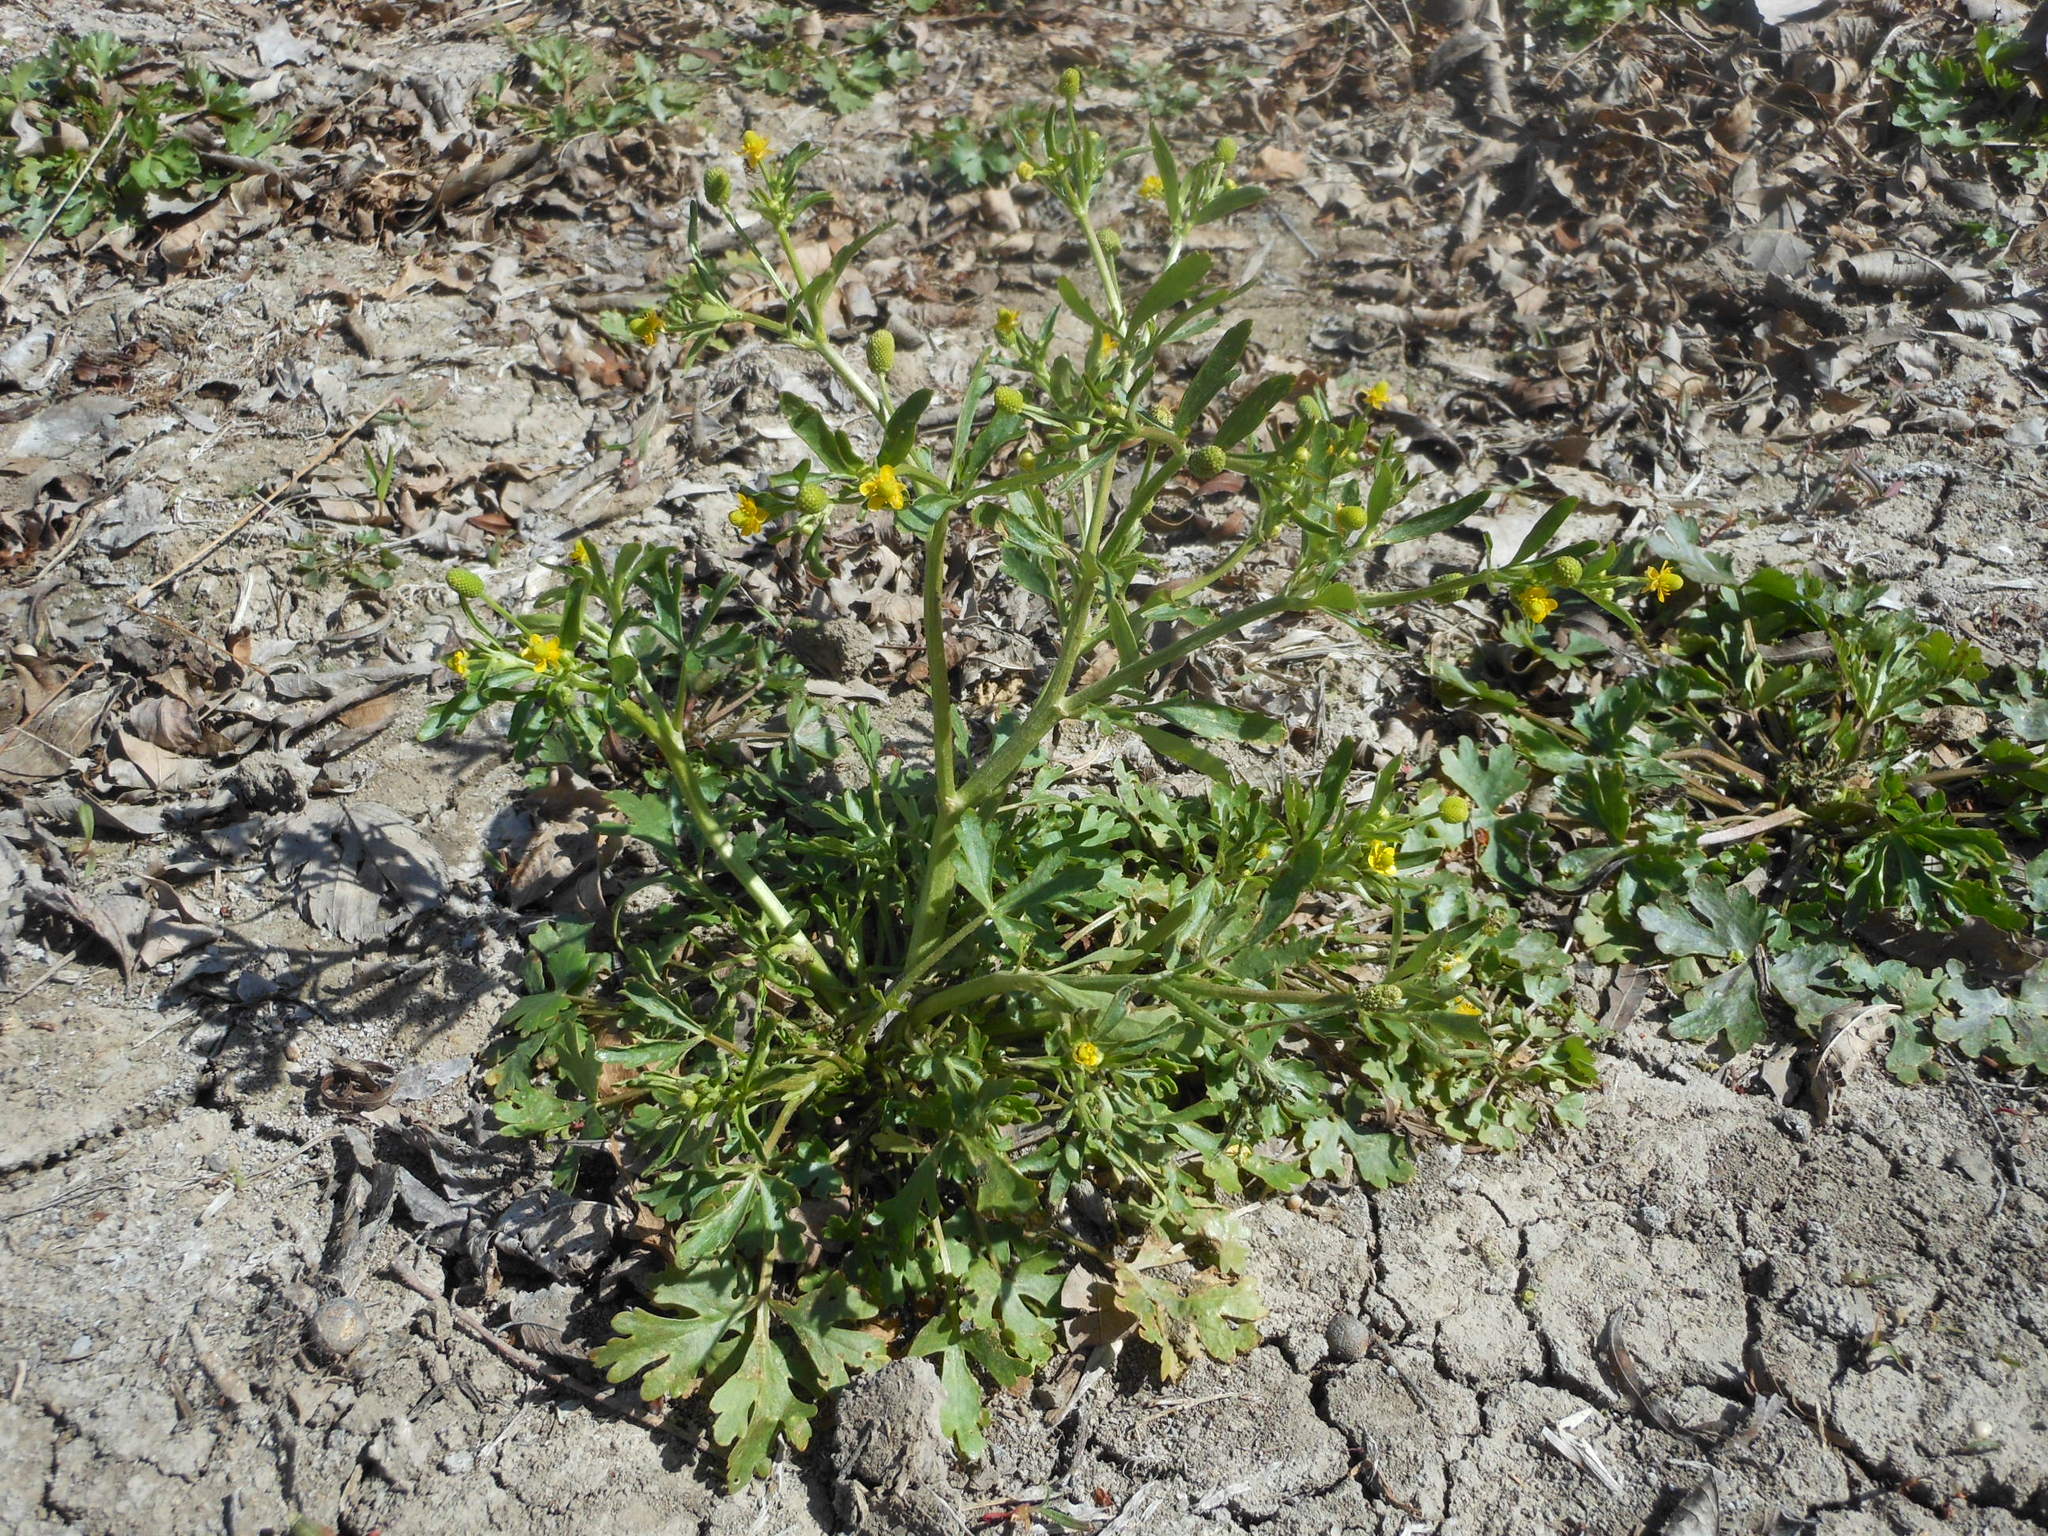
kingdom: Plantae
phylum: Tracheophyta
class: Magnoliopsida
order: Ranunculales
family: Ranunculaceae
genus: Ranunculus
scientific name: Ranunculus sceleratus
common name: Celery-leaved buttercup
